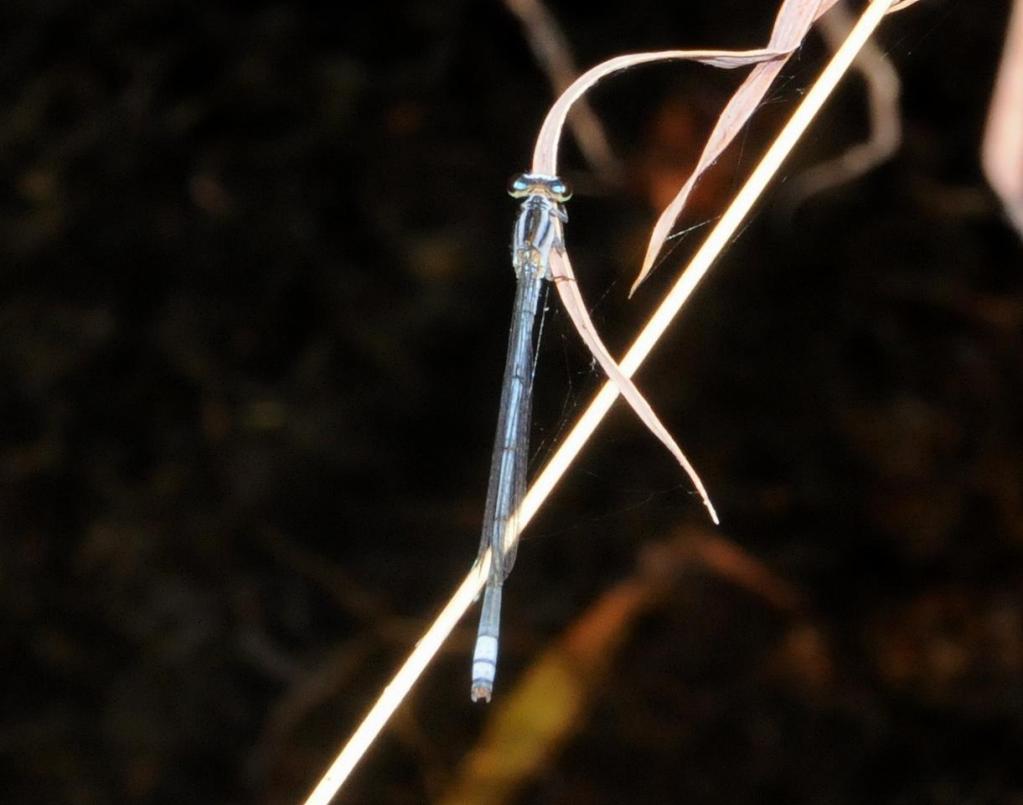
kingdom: Animalia
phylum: Arthropoda
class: Insecta
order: Odonata
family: Coenagrionidae
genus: Pseudagrion
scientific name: Pseudagrion kersteni
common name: Powder-faced sprite
